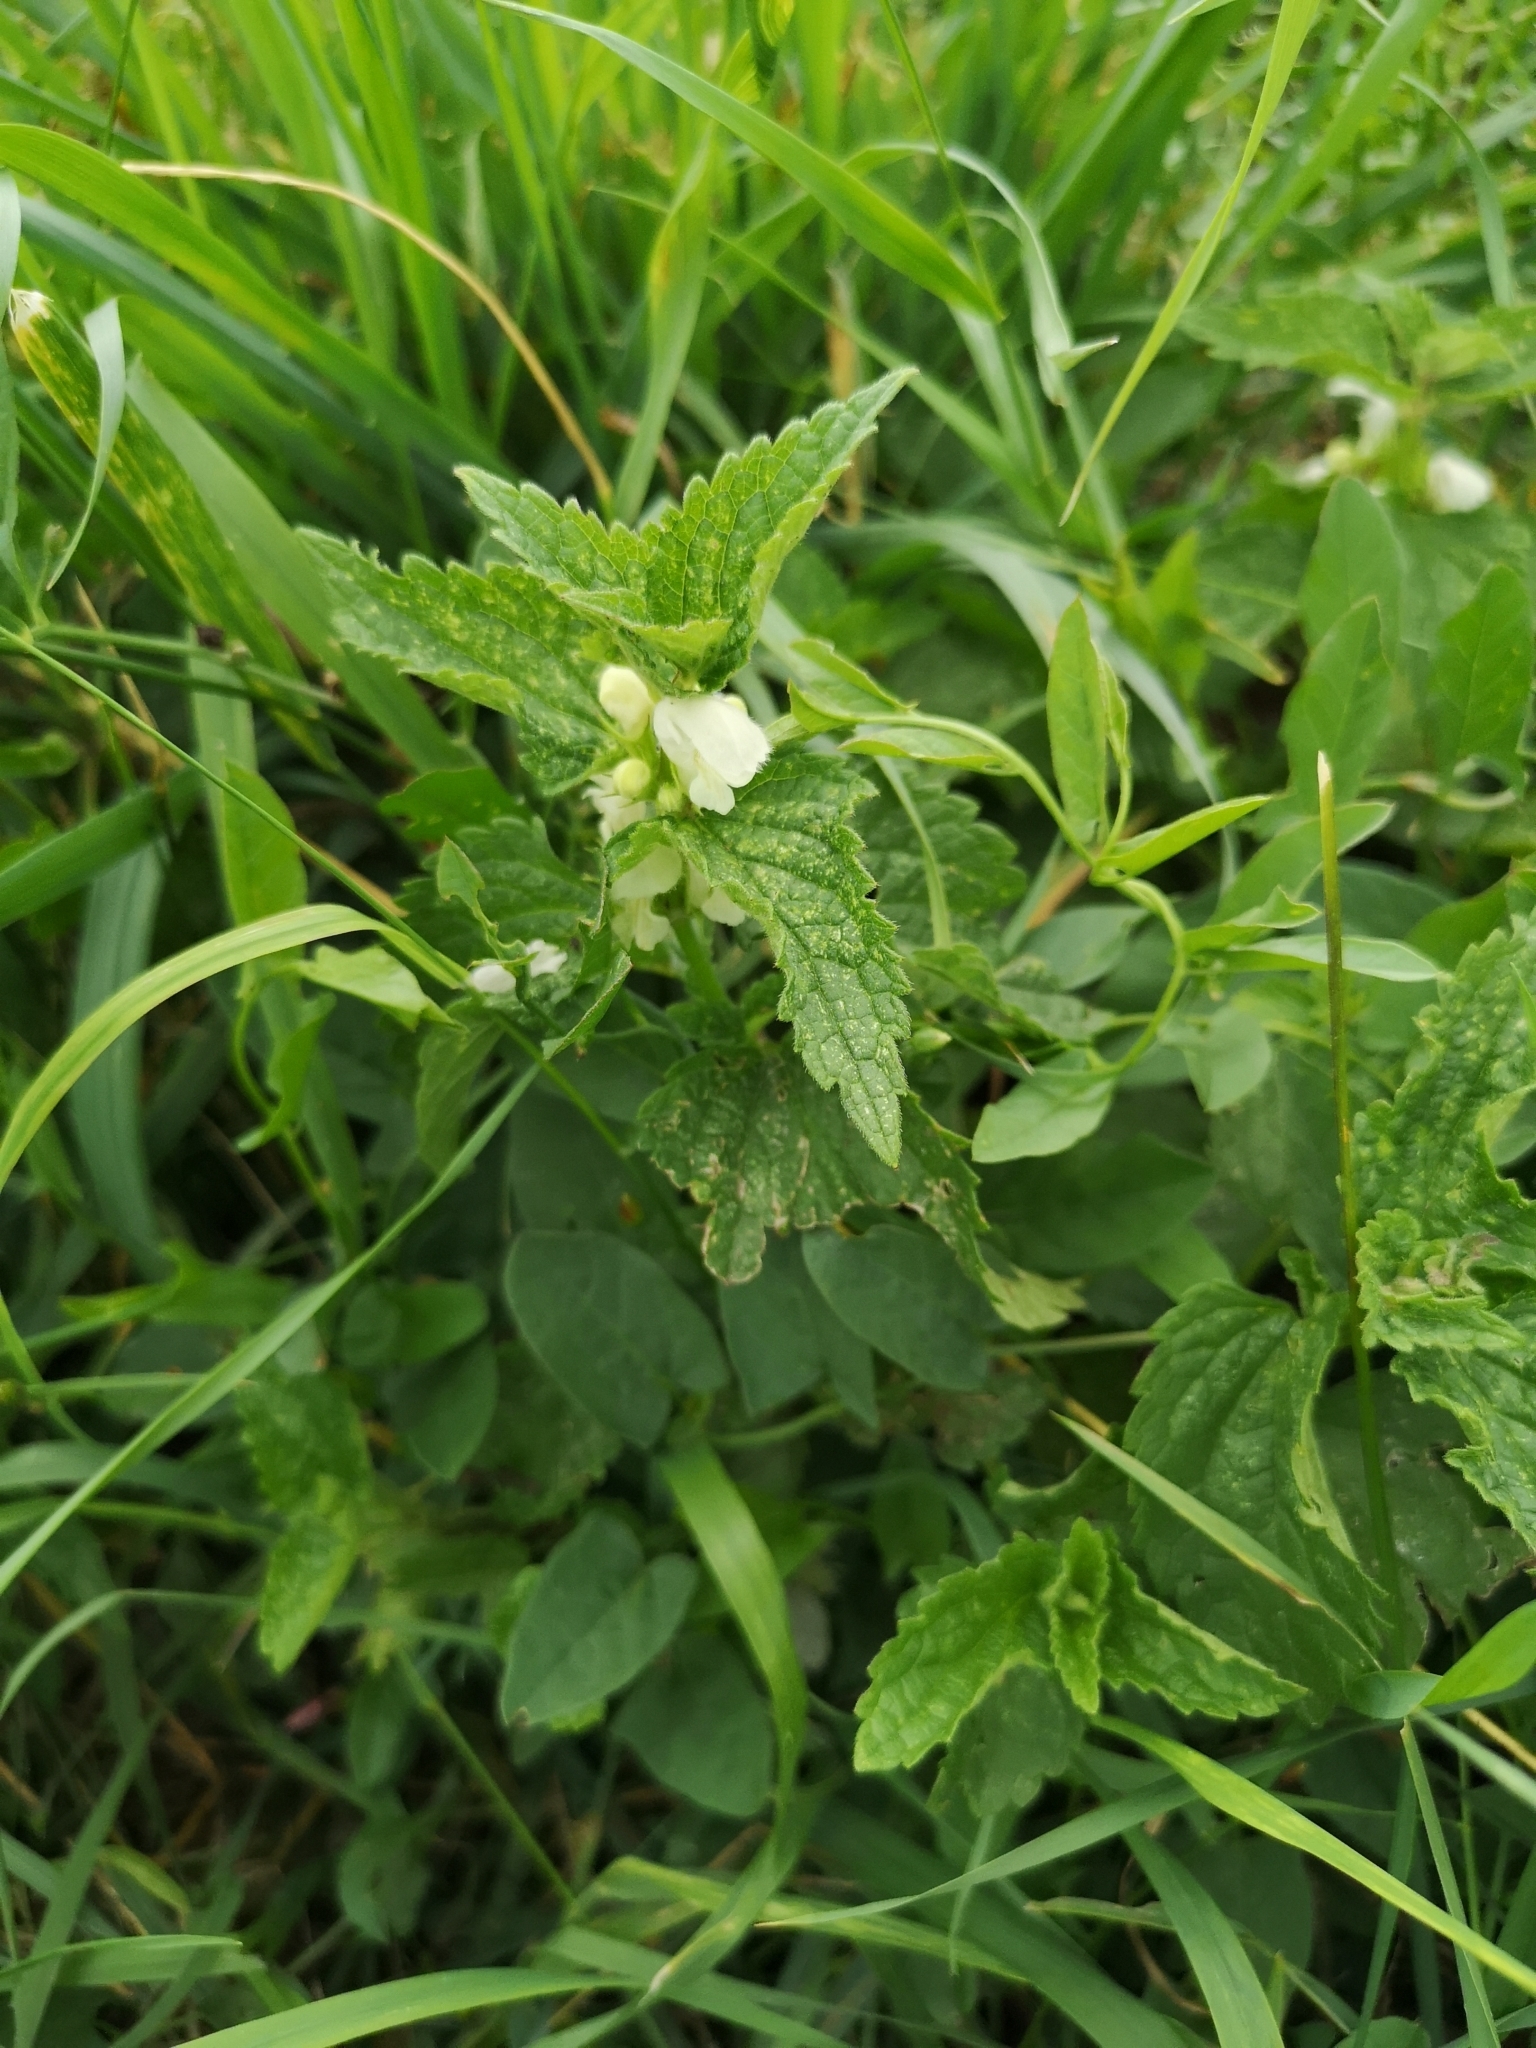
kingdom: Plantae
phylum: Tracheophyta
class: Magnoliopsida
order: Lamiales
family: Lamiaceae
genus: Lamium
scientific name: Lamium album
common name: White dead-nettle
